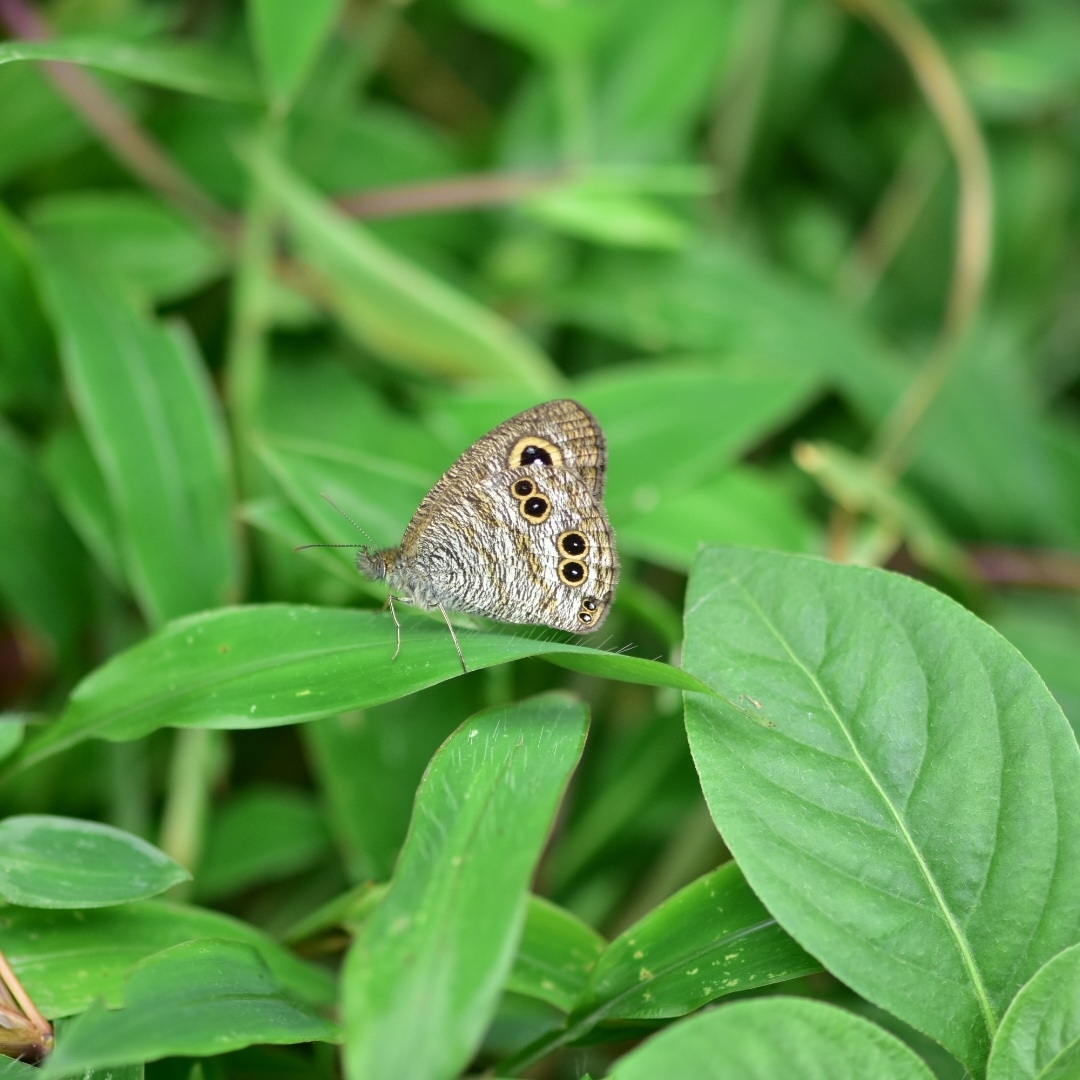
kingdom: Animalia
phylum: Arthropoda
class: Insecta
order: Lepidoptera
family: Nymphalidae
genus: Ypthima
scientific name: Ypthima baldus
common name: Common five-ring
